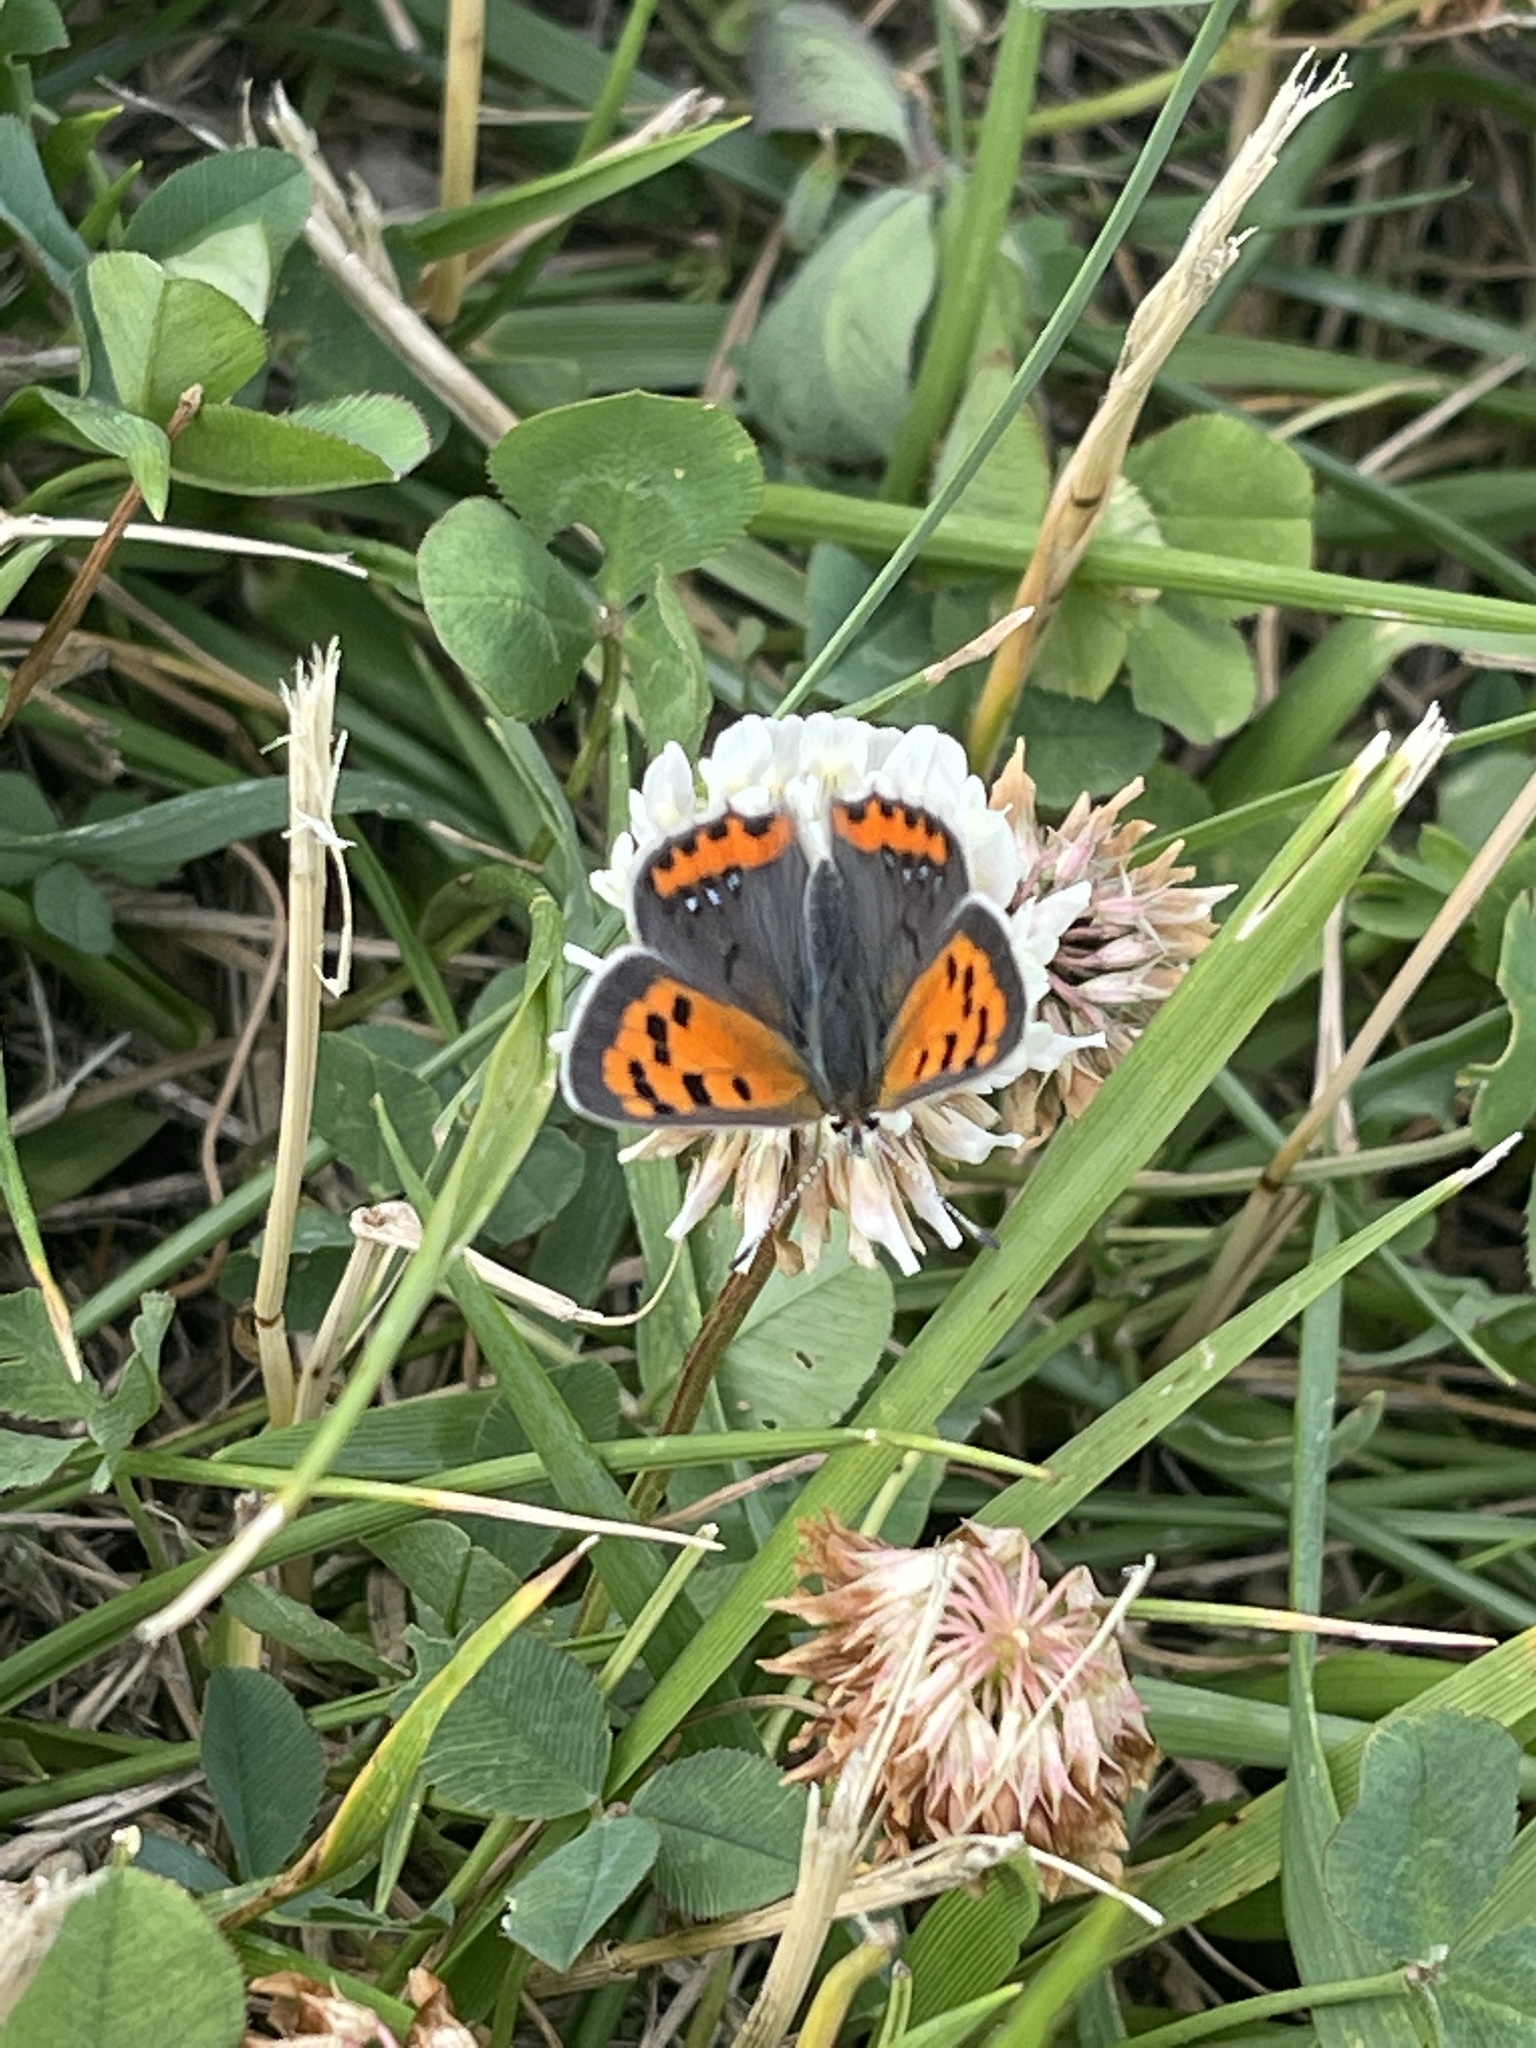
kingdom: Animalia
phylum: Arthropoda
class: Insecta
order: Lepidoptera
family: Lycaenidae
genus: Lycaena
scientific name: Lycaena hypophlaeas
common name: American copper
